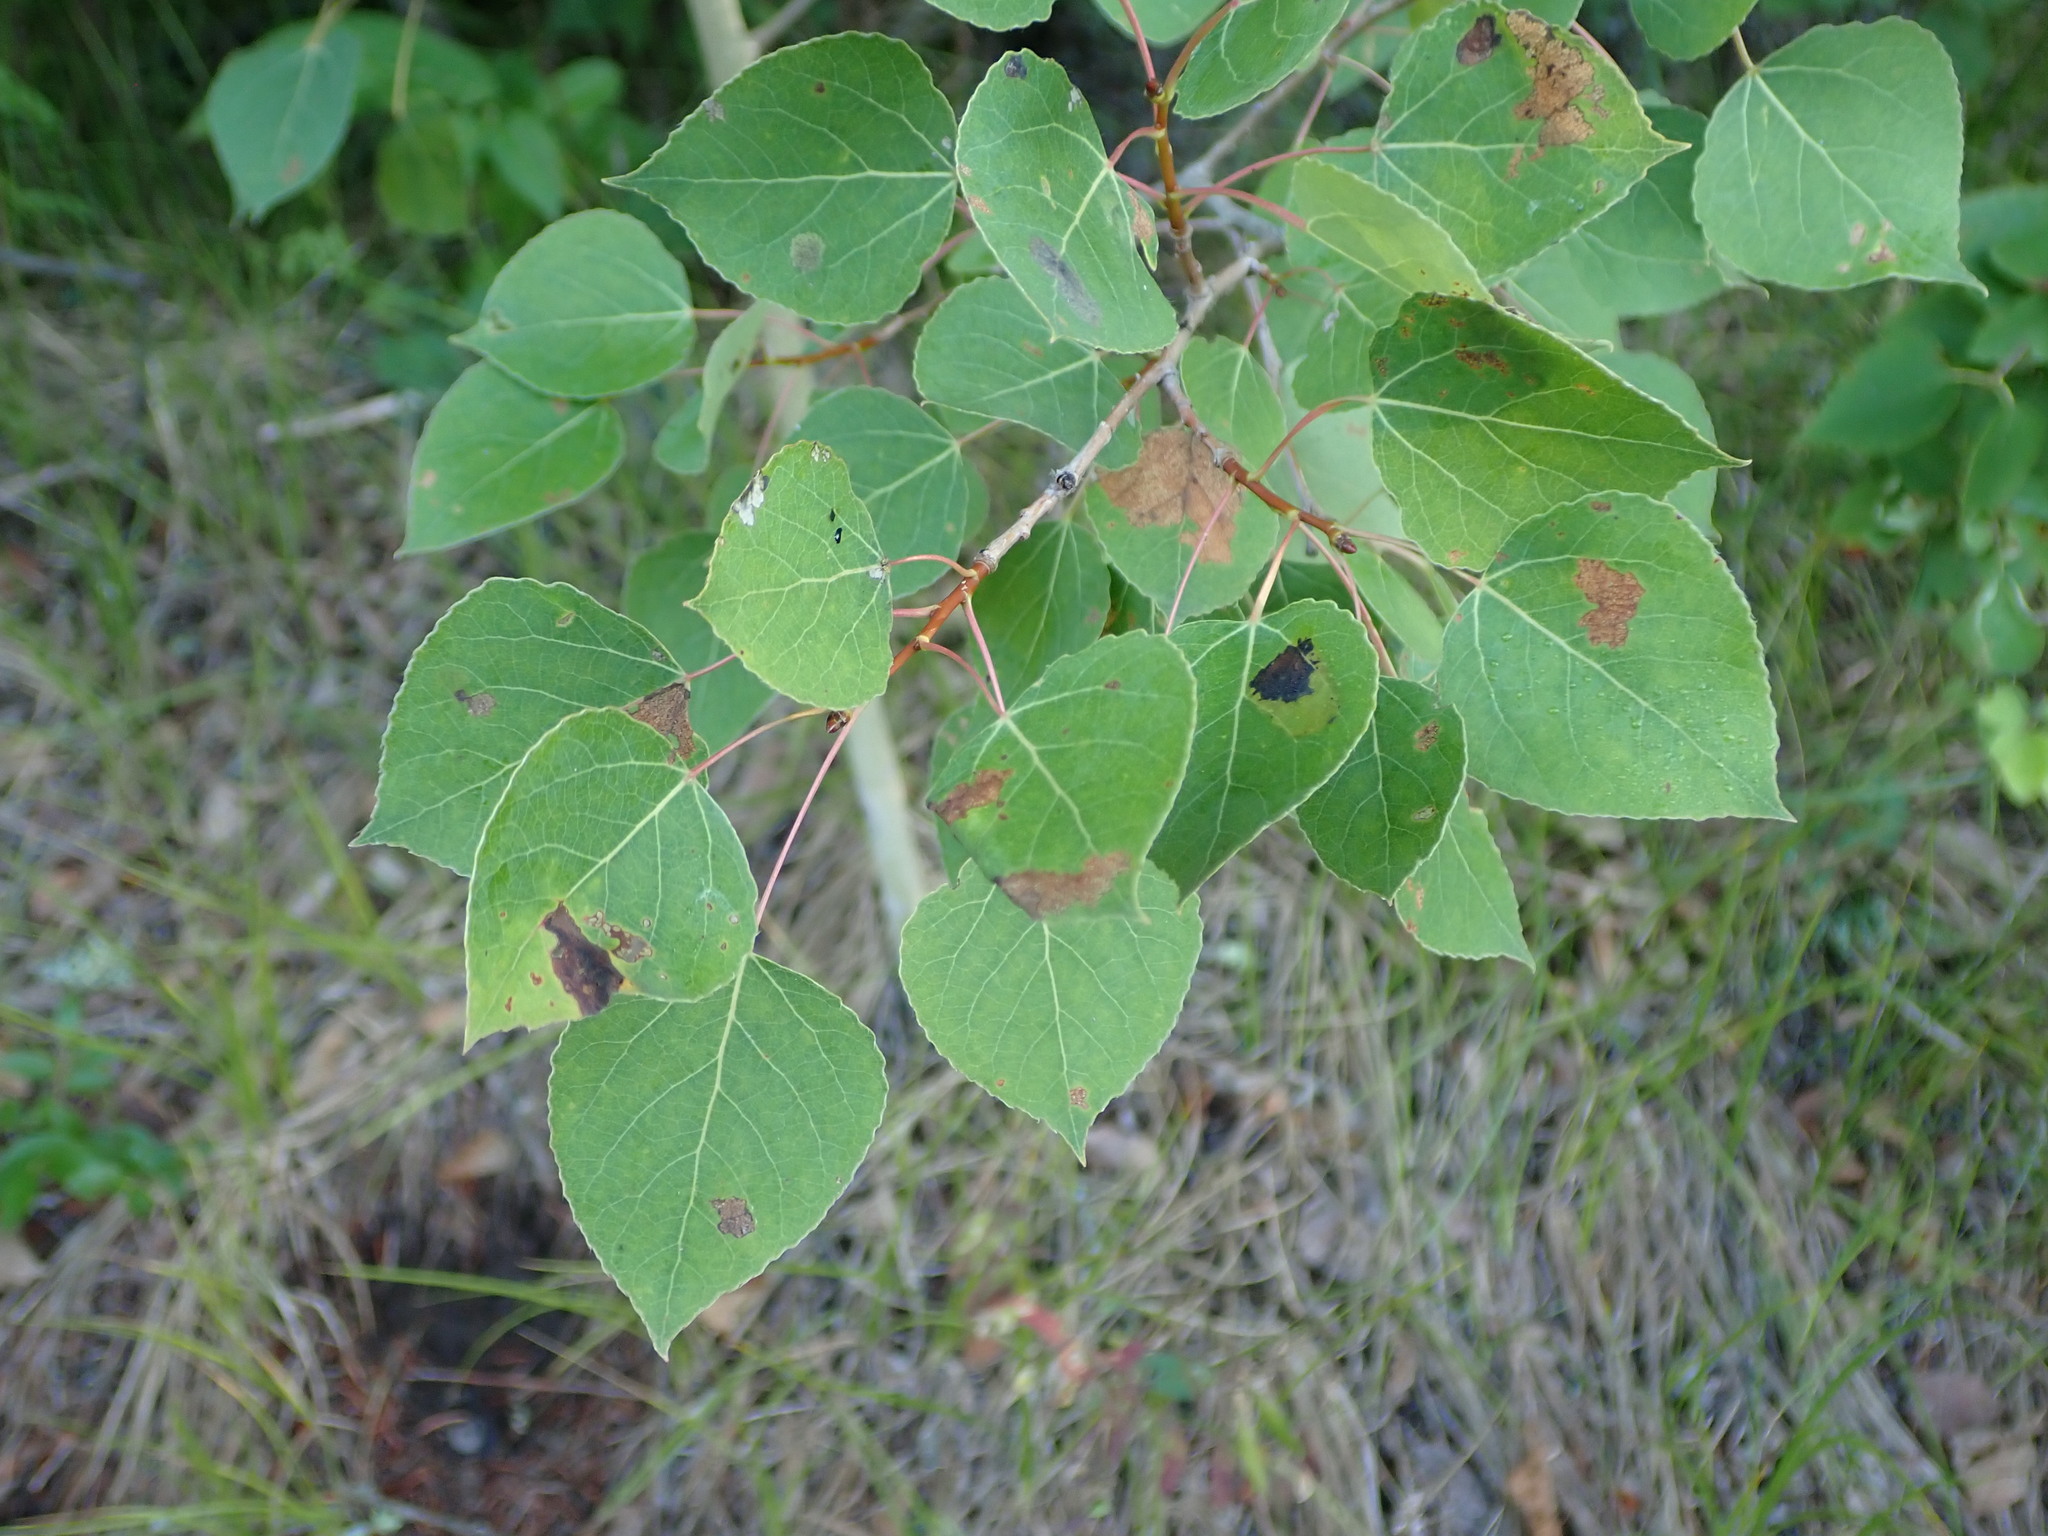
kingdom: Plantae
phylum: Tracheophyta
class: Magnoliopsida
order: Malpighiales
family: Salicaceae
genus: Populus
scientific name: Populus tremuloides
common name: Quaking aspen
